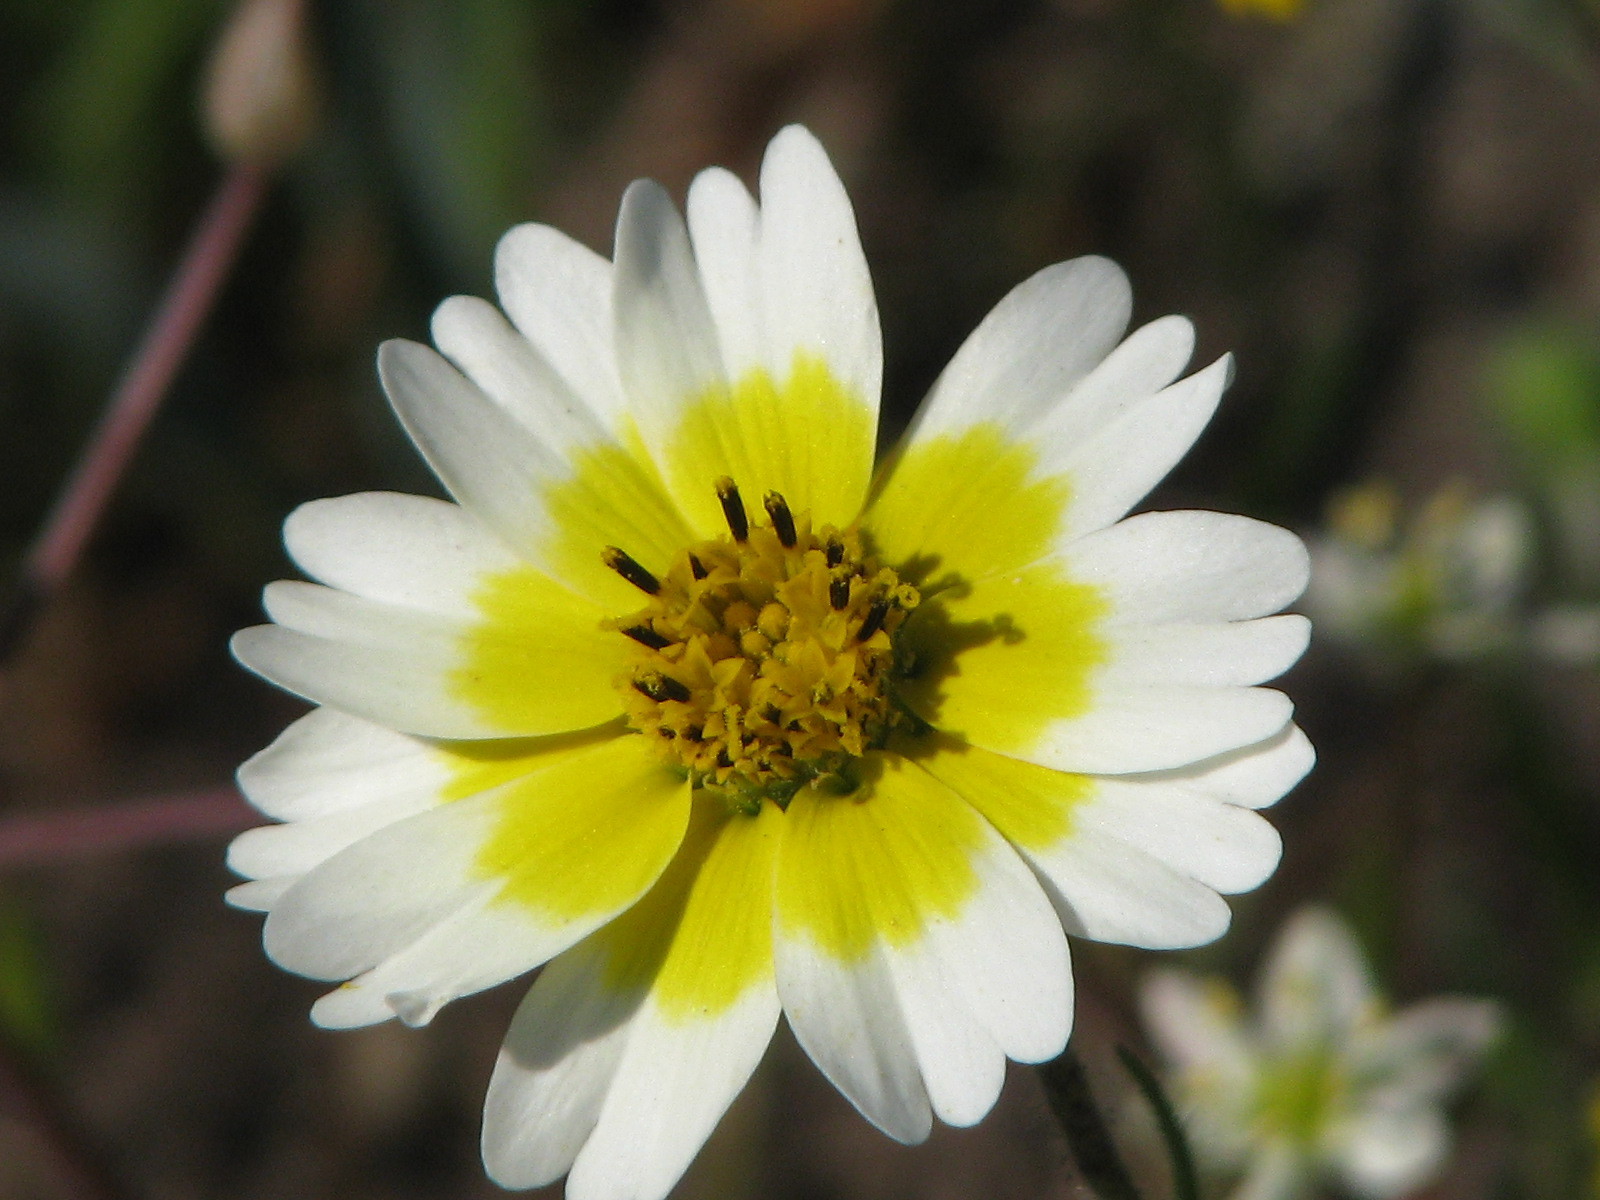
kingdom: Plantae
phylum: Tracheophyta
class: Magnoliopsida
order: Asterales
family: Asteraceae
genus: Layia
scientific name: Layia gaillardioides
